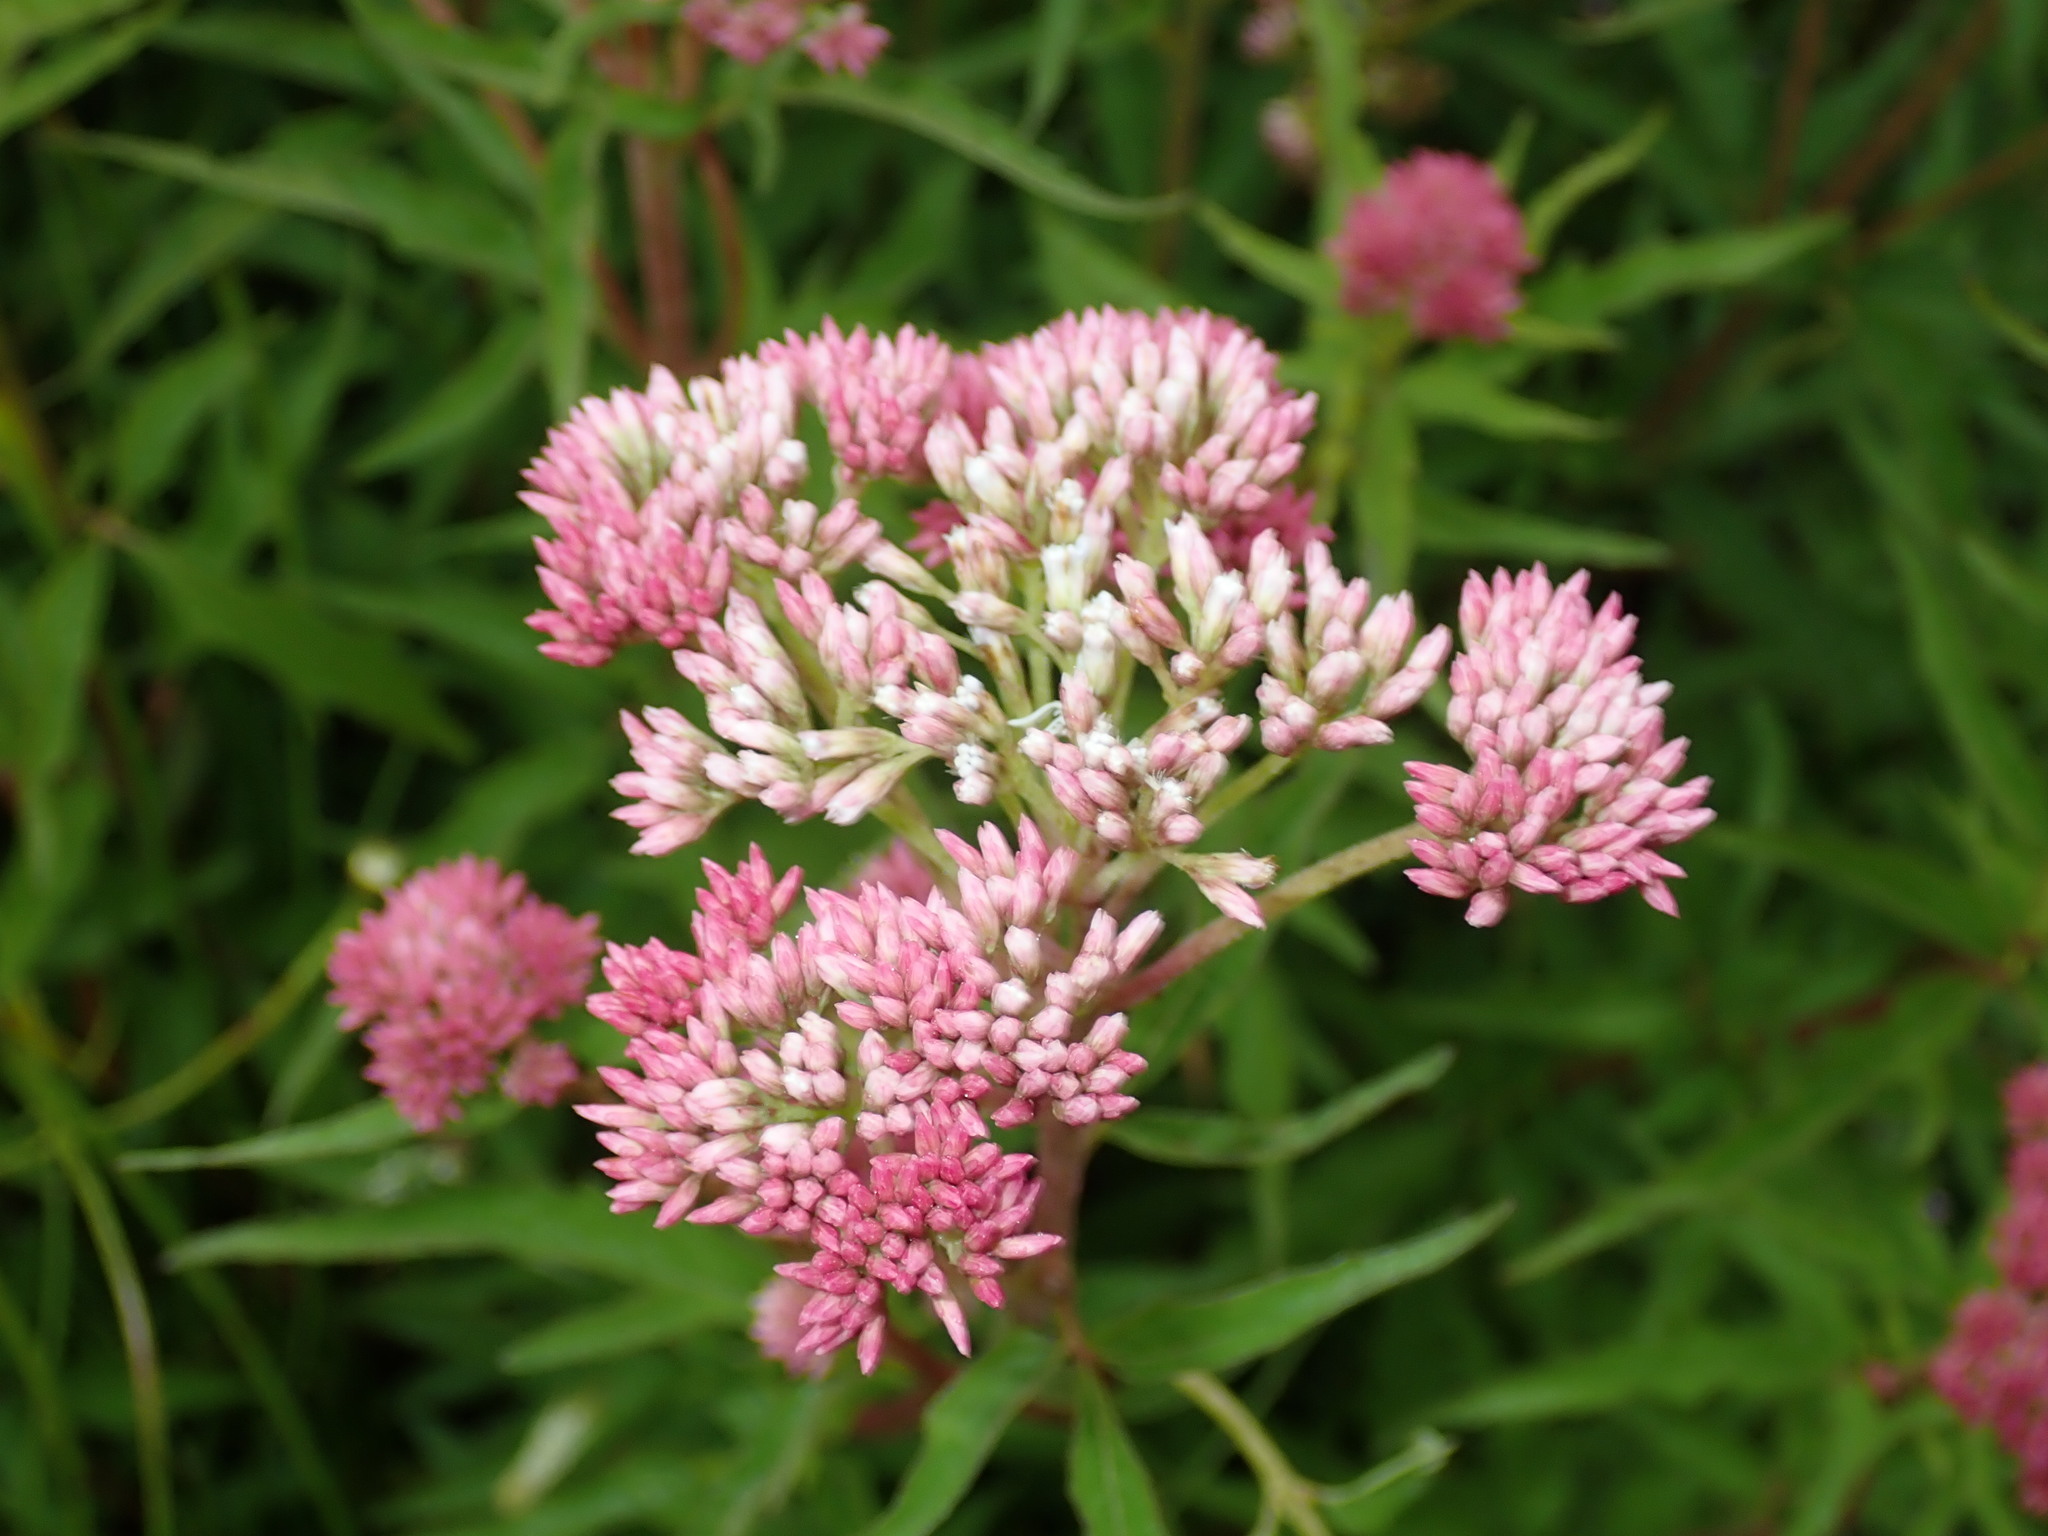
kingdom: Plantae
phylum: Tracheophyta
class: Magnoliopsida
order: Asterales
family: Asteraceae
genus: Eupatorium
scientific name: Eupatorium formosanum
